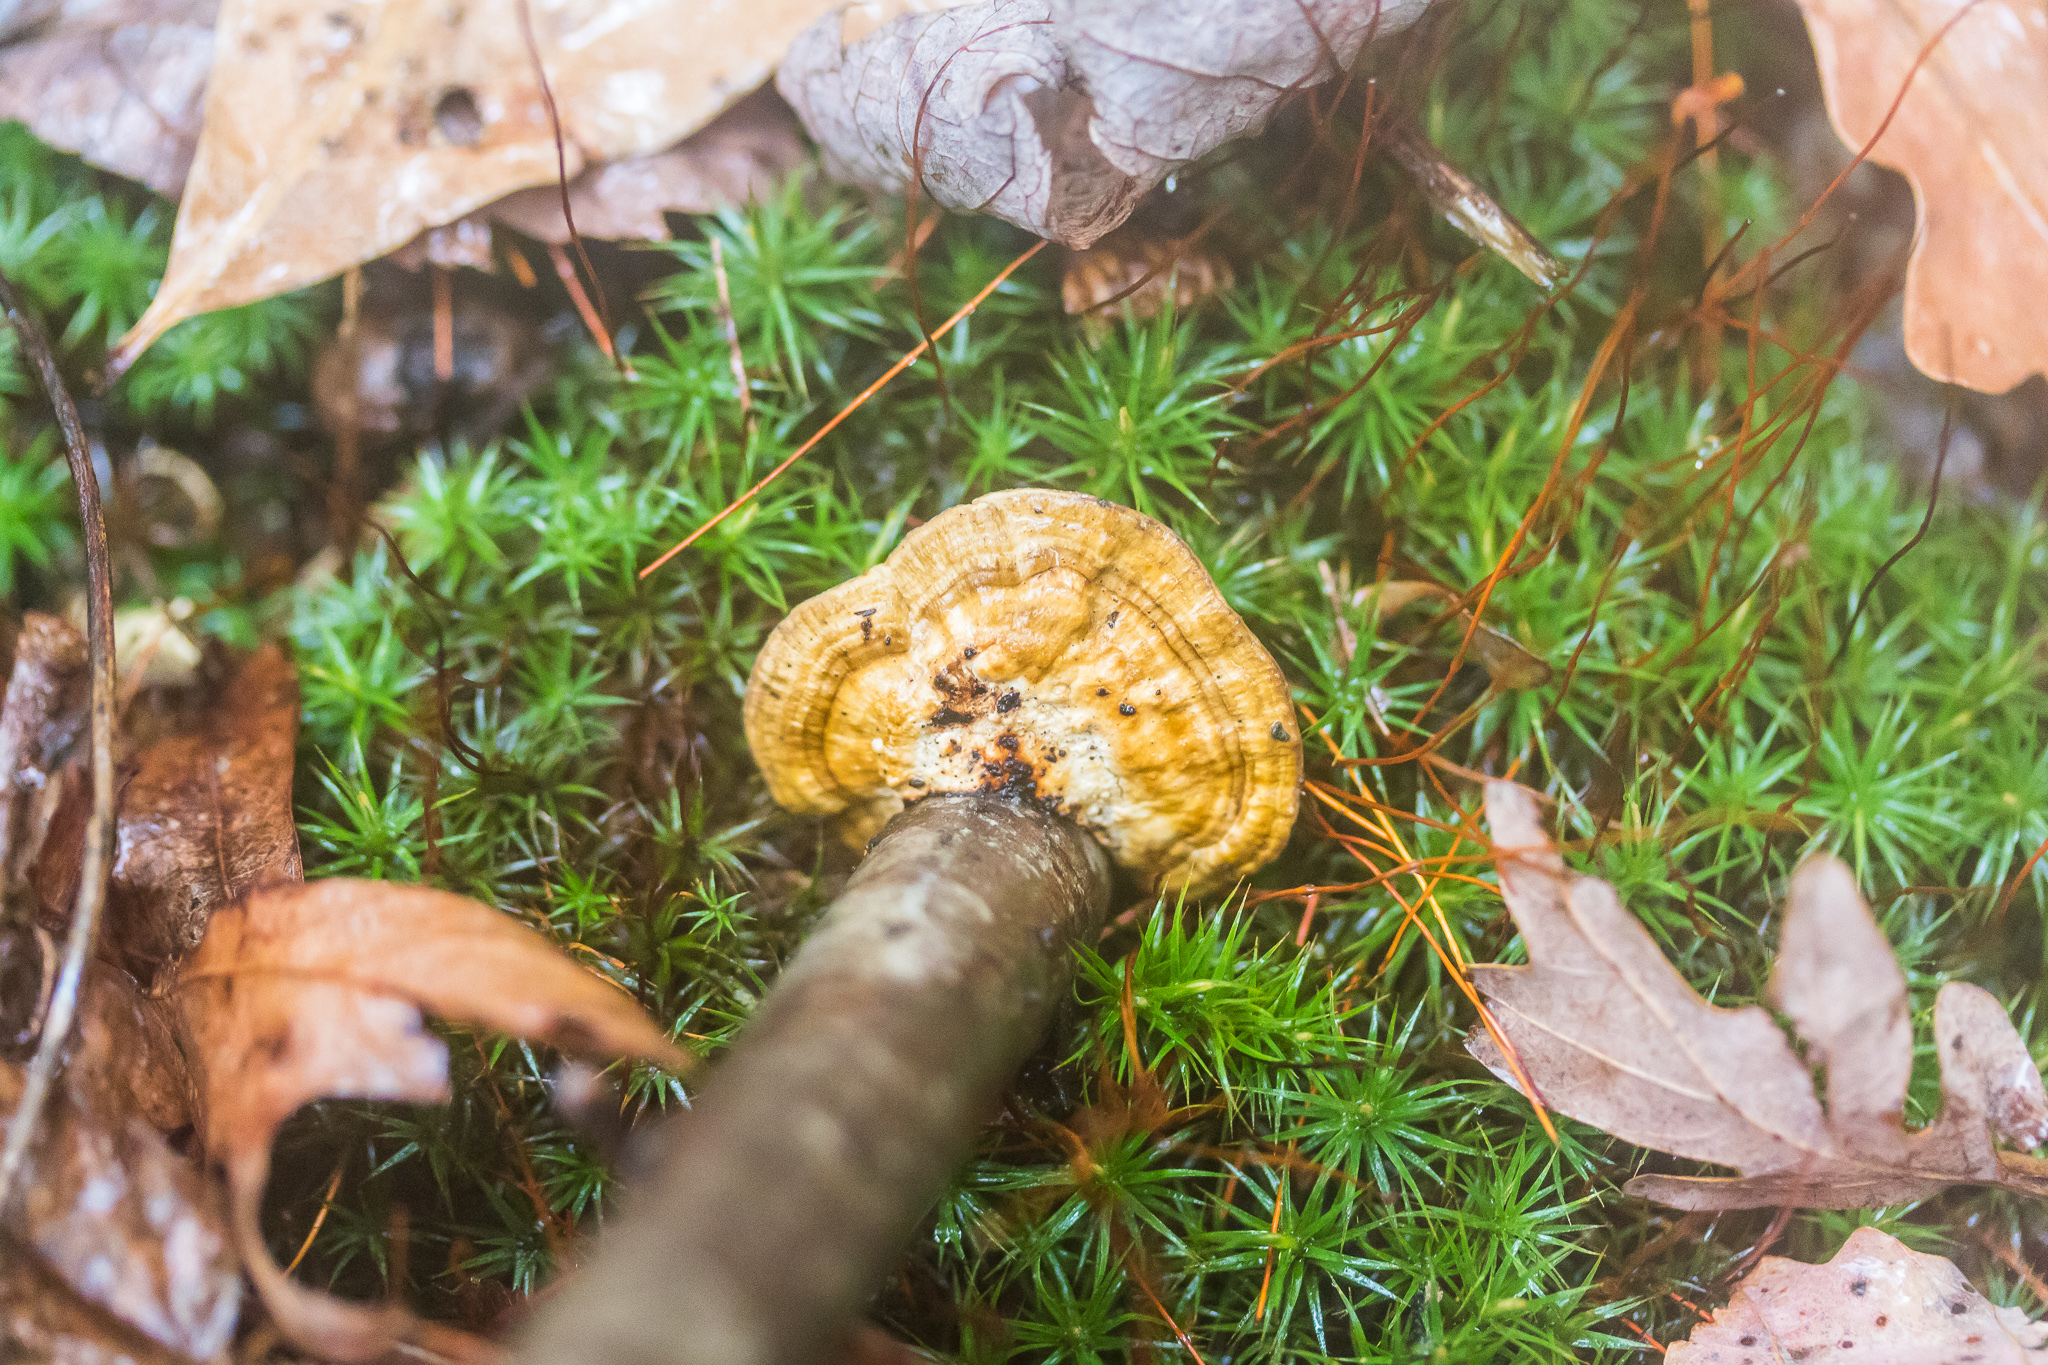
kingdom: Fungi
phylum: Basidiomycota
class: Agaricomycetes
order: Polyporales
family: Polyporaceae
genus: Daedaleopsis
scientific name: Daedaleopsis confragosa
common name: Blushing bracket
